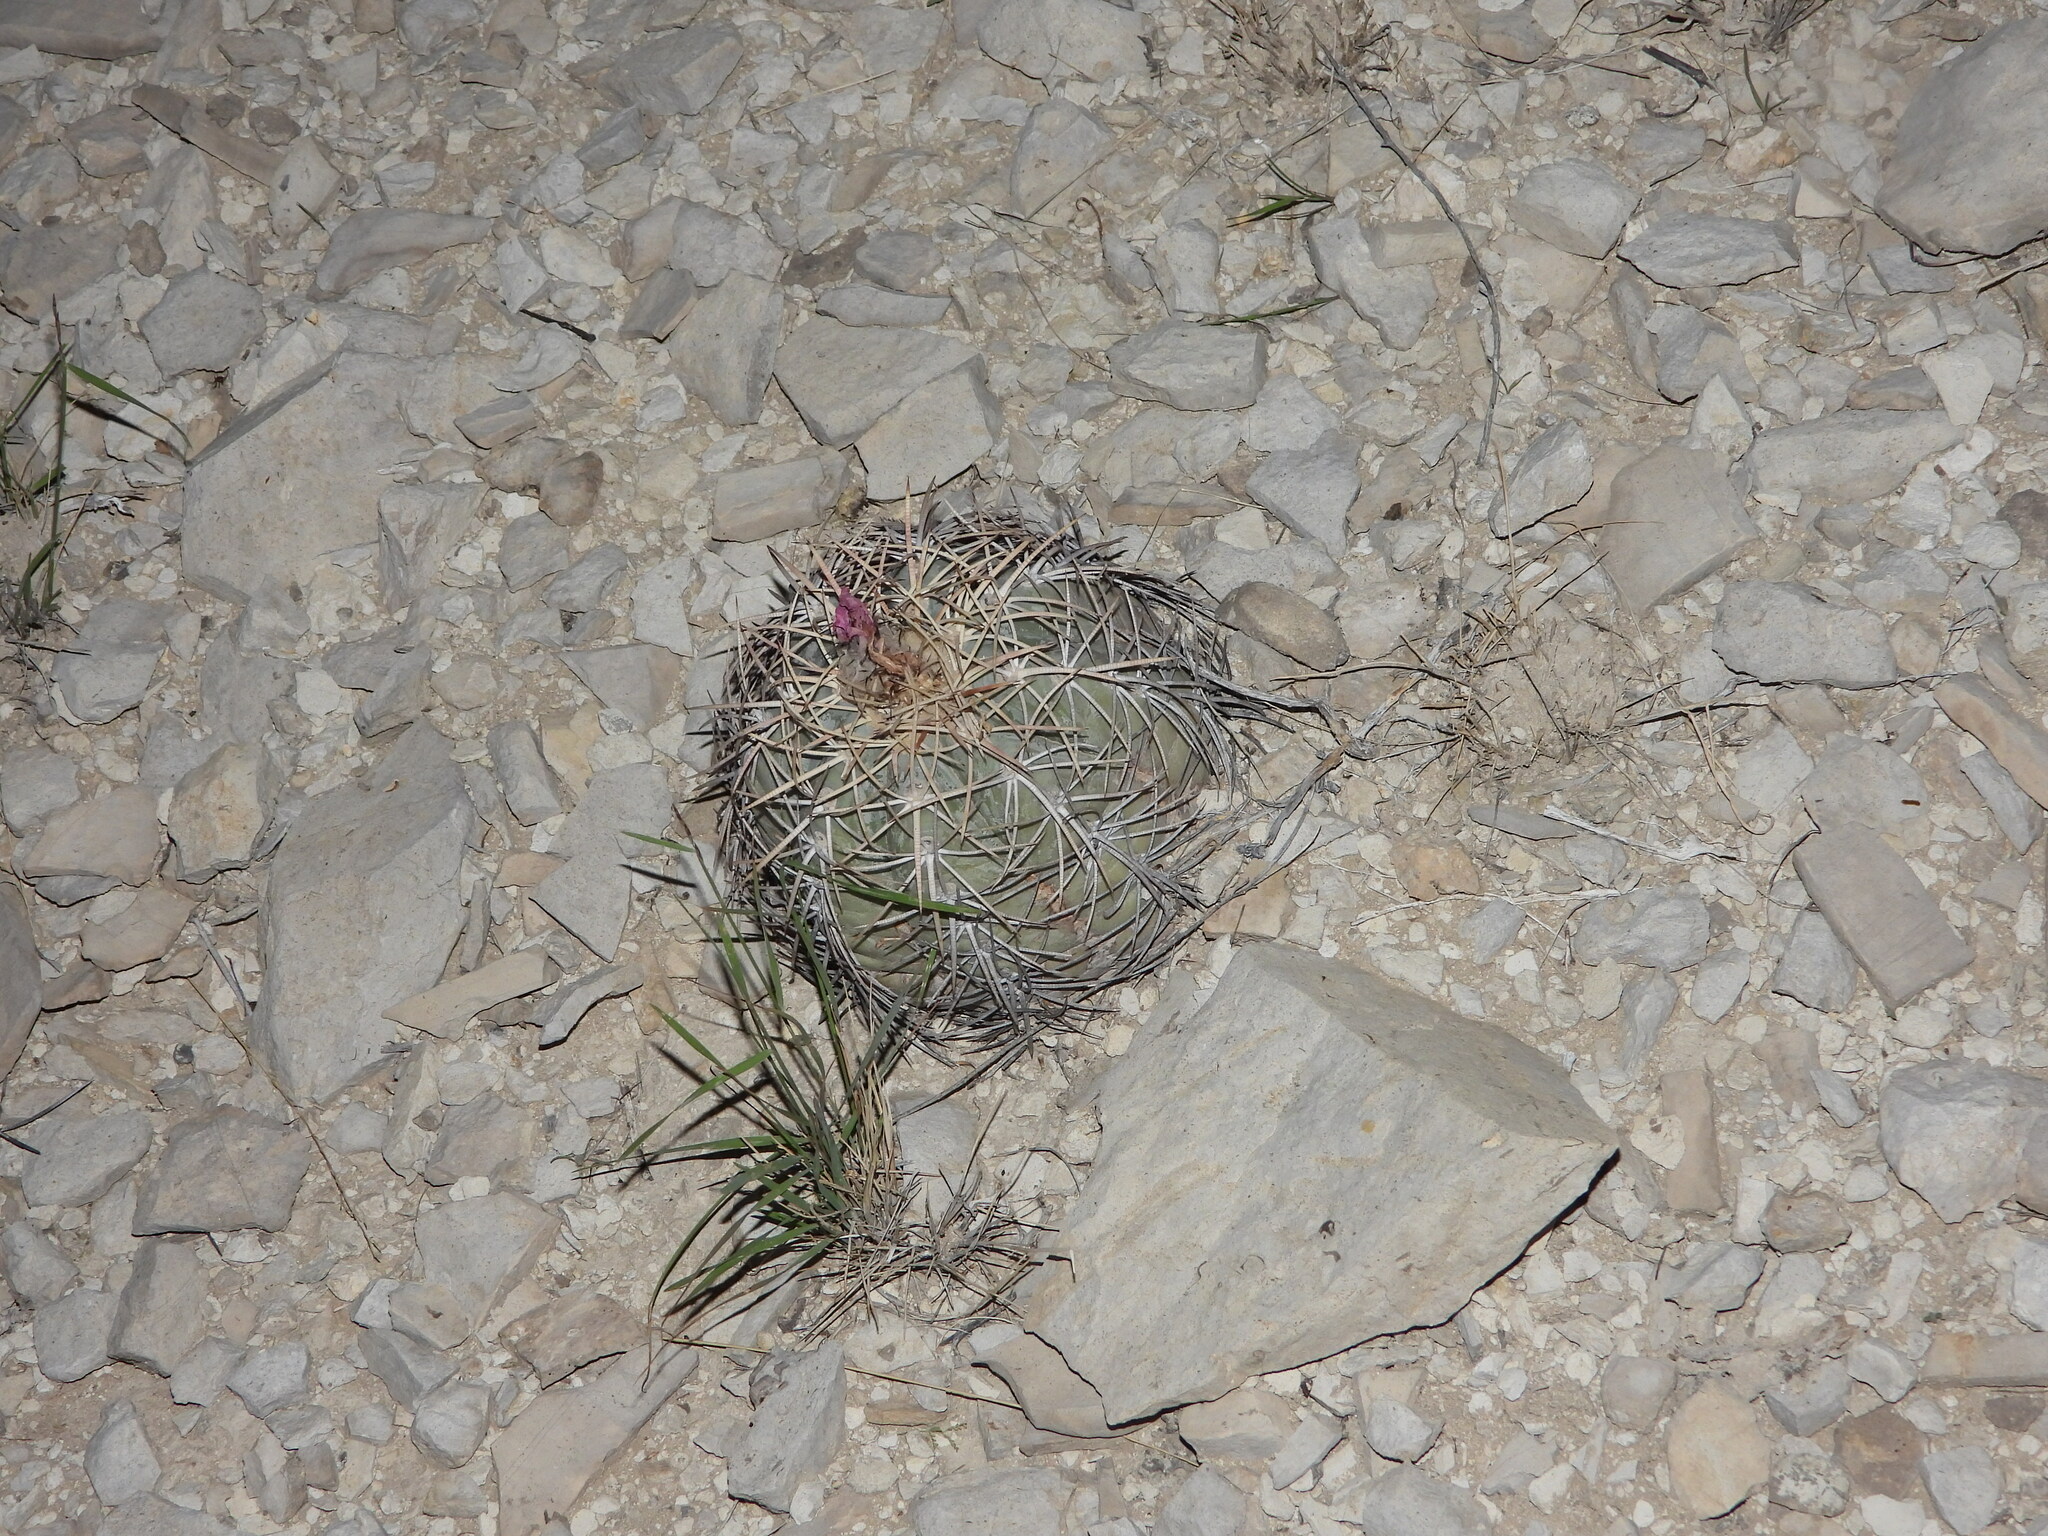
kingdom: Plantae
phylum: Tracheophyta
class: Magnoliopsida
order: Caryophyllales
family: Cactaceae
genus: Echinocactus
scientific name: Echinocactus horizonthalonius
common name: Devilshead
